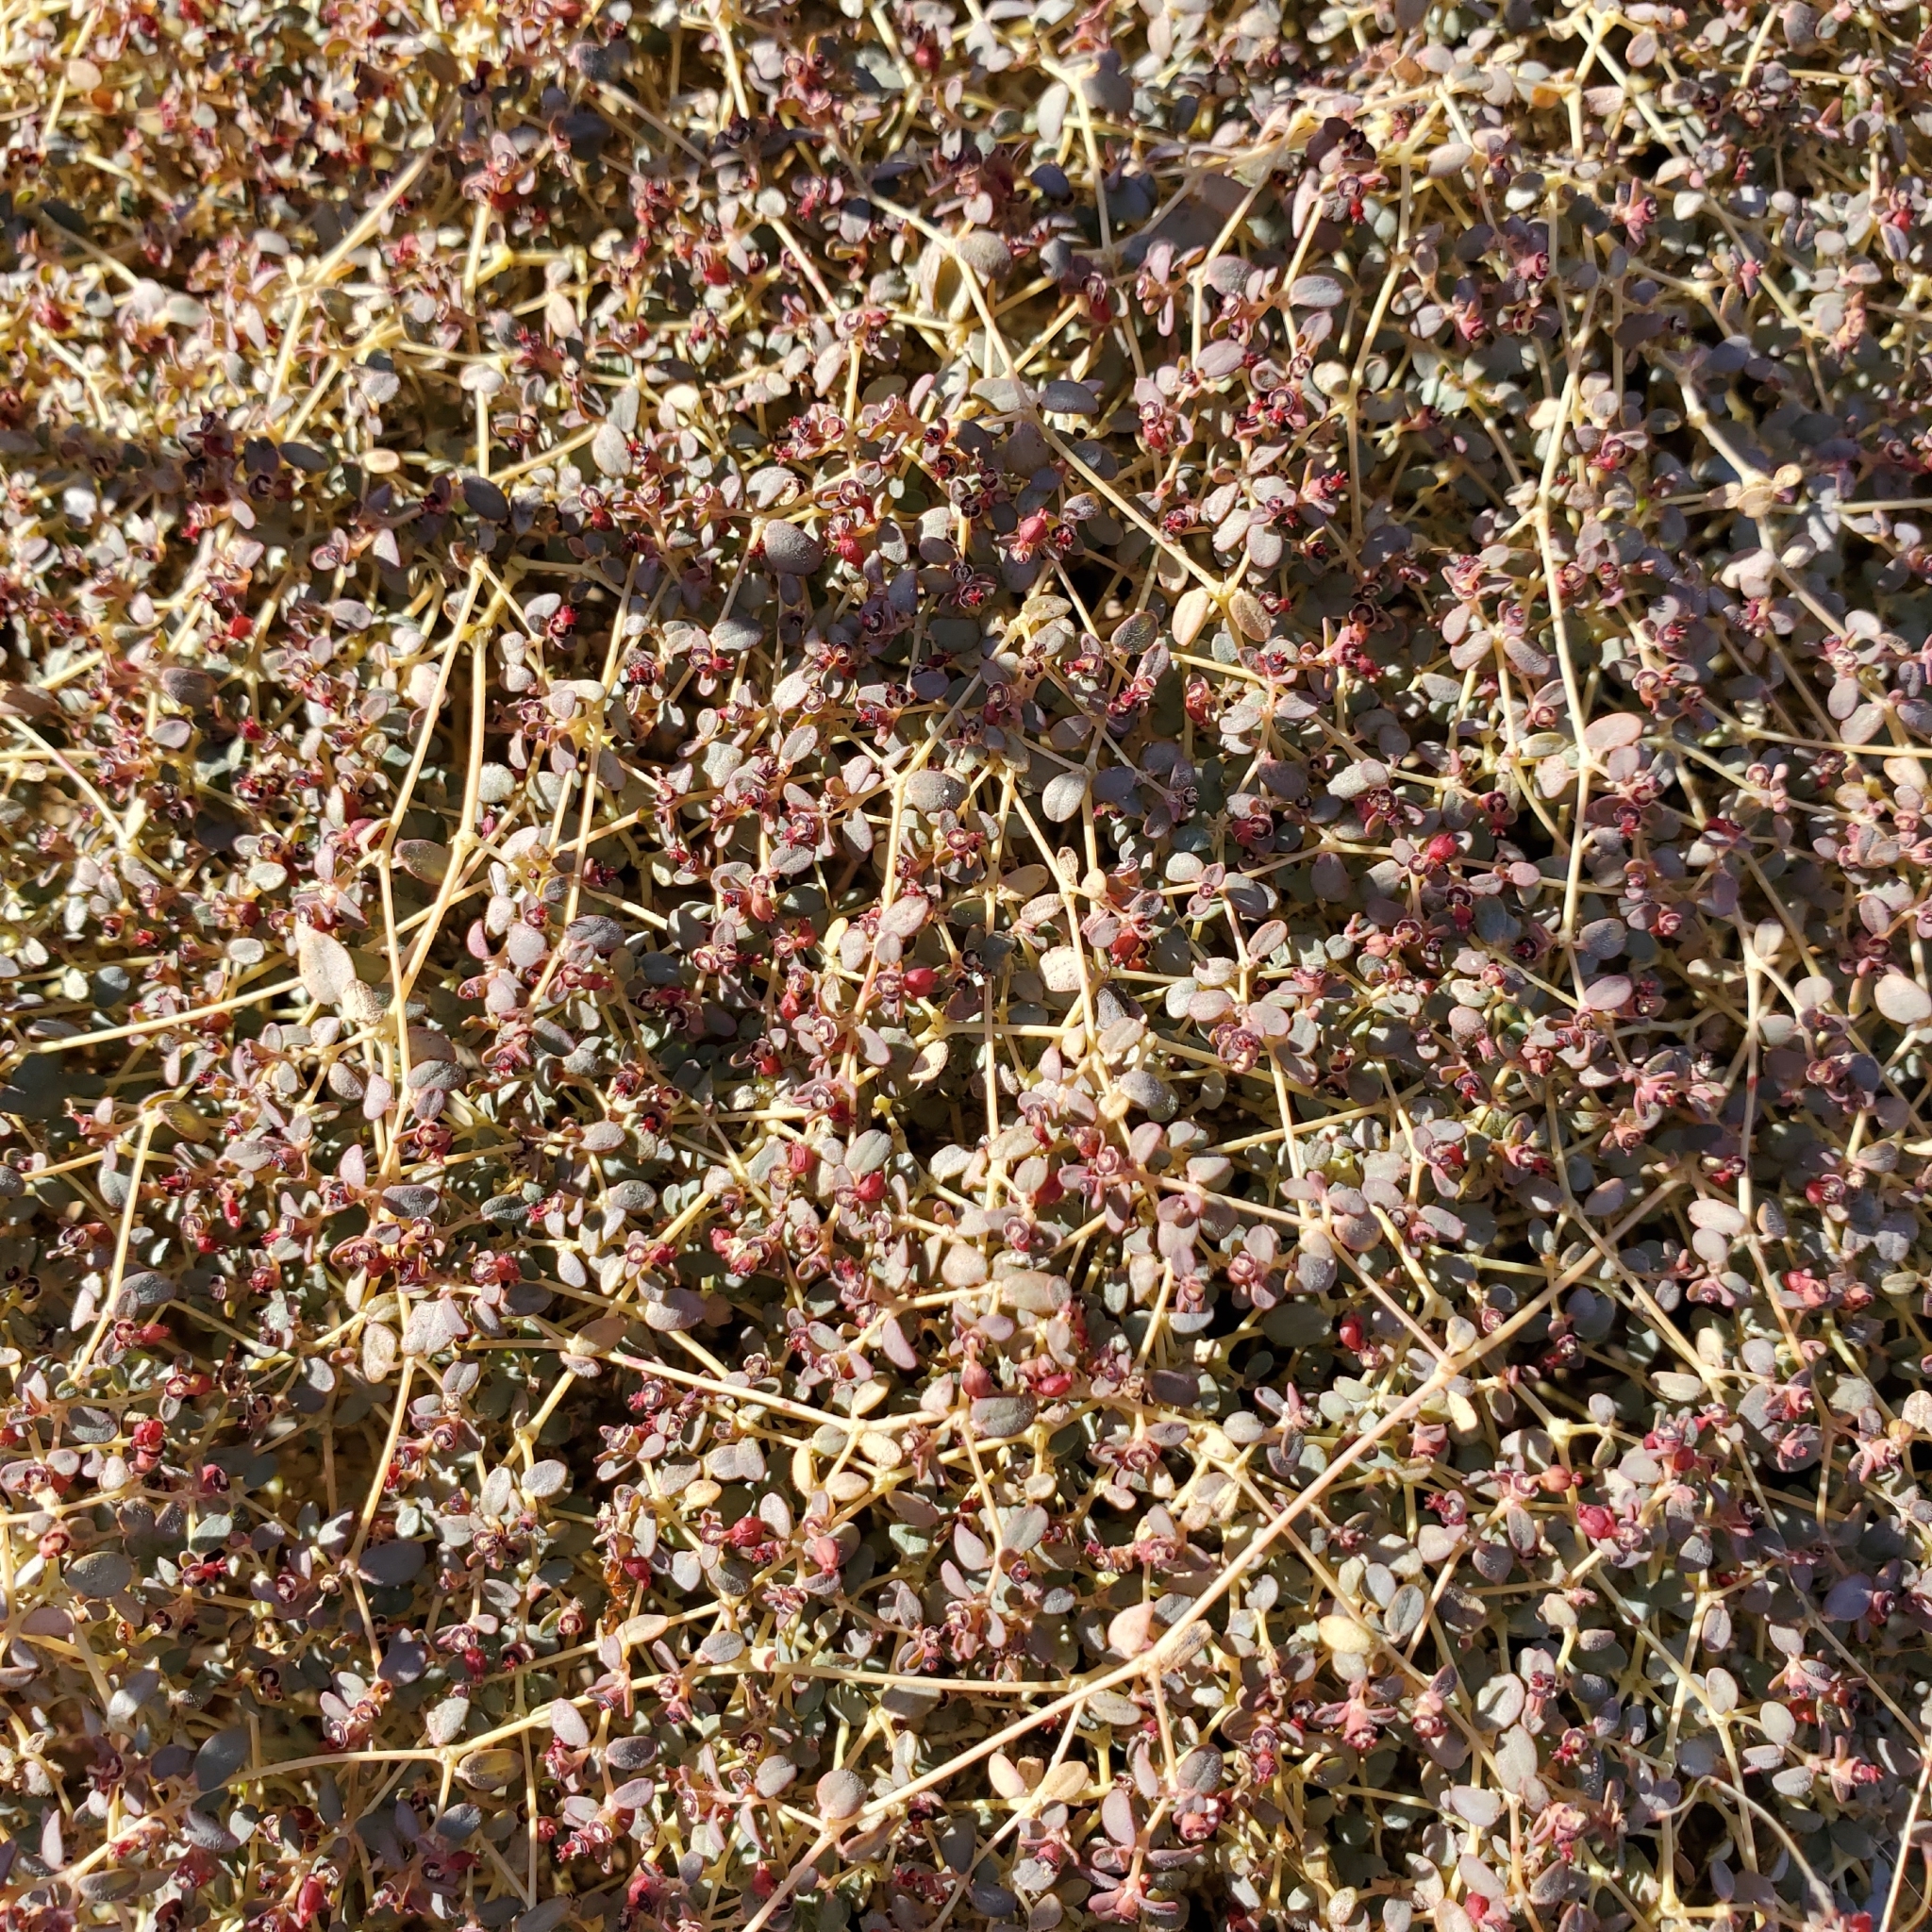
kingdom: Plantae
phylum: Tracheophyta
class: Magnoliopsida
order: Malpighiales
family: Euphorbiaceae
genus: Euphorbia
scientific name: Euphorbia polycarpa
